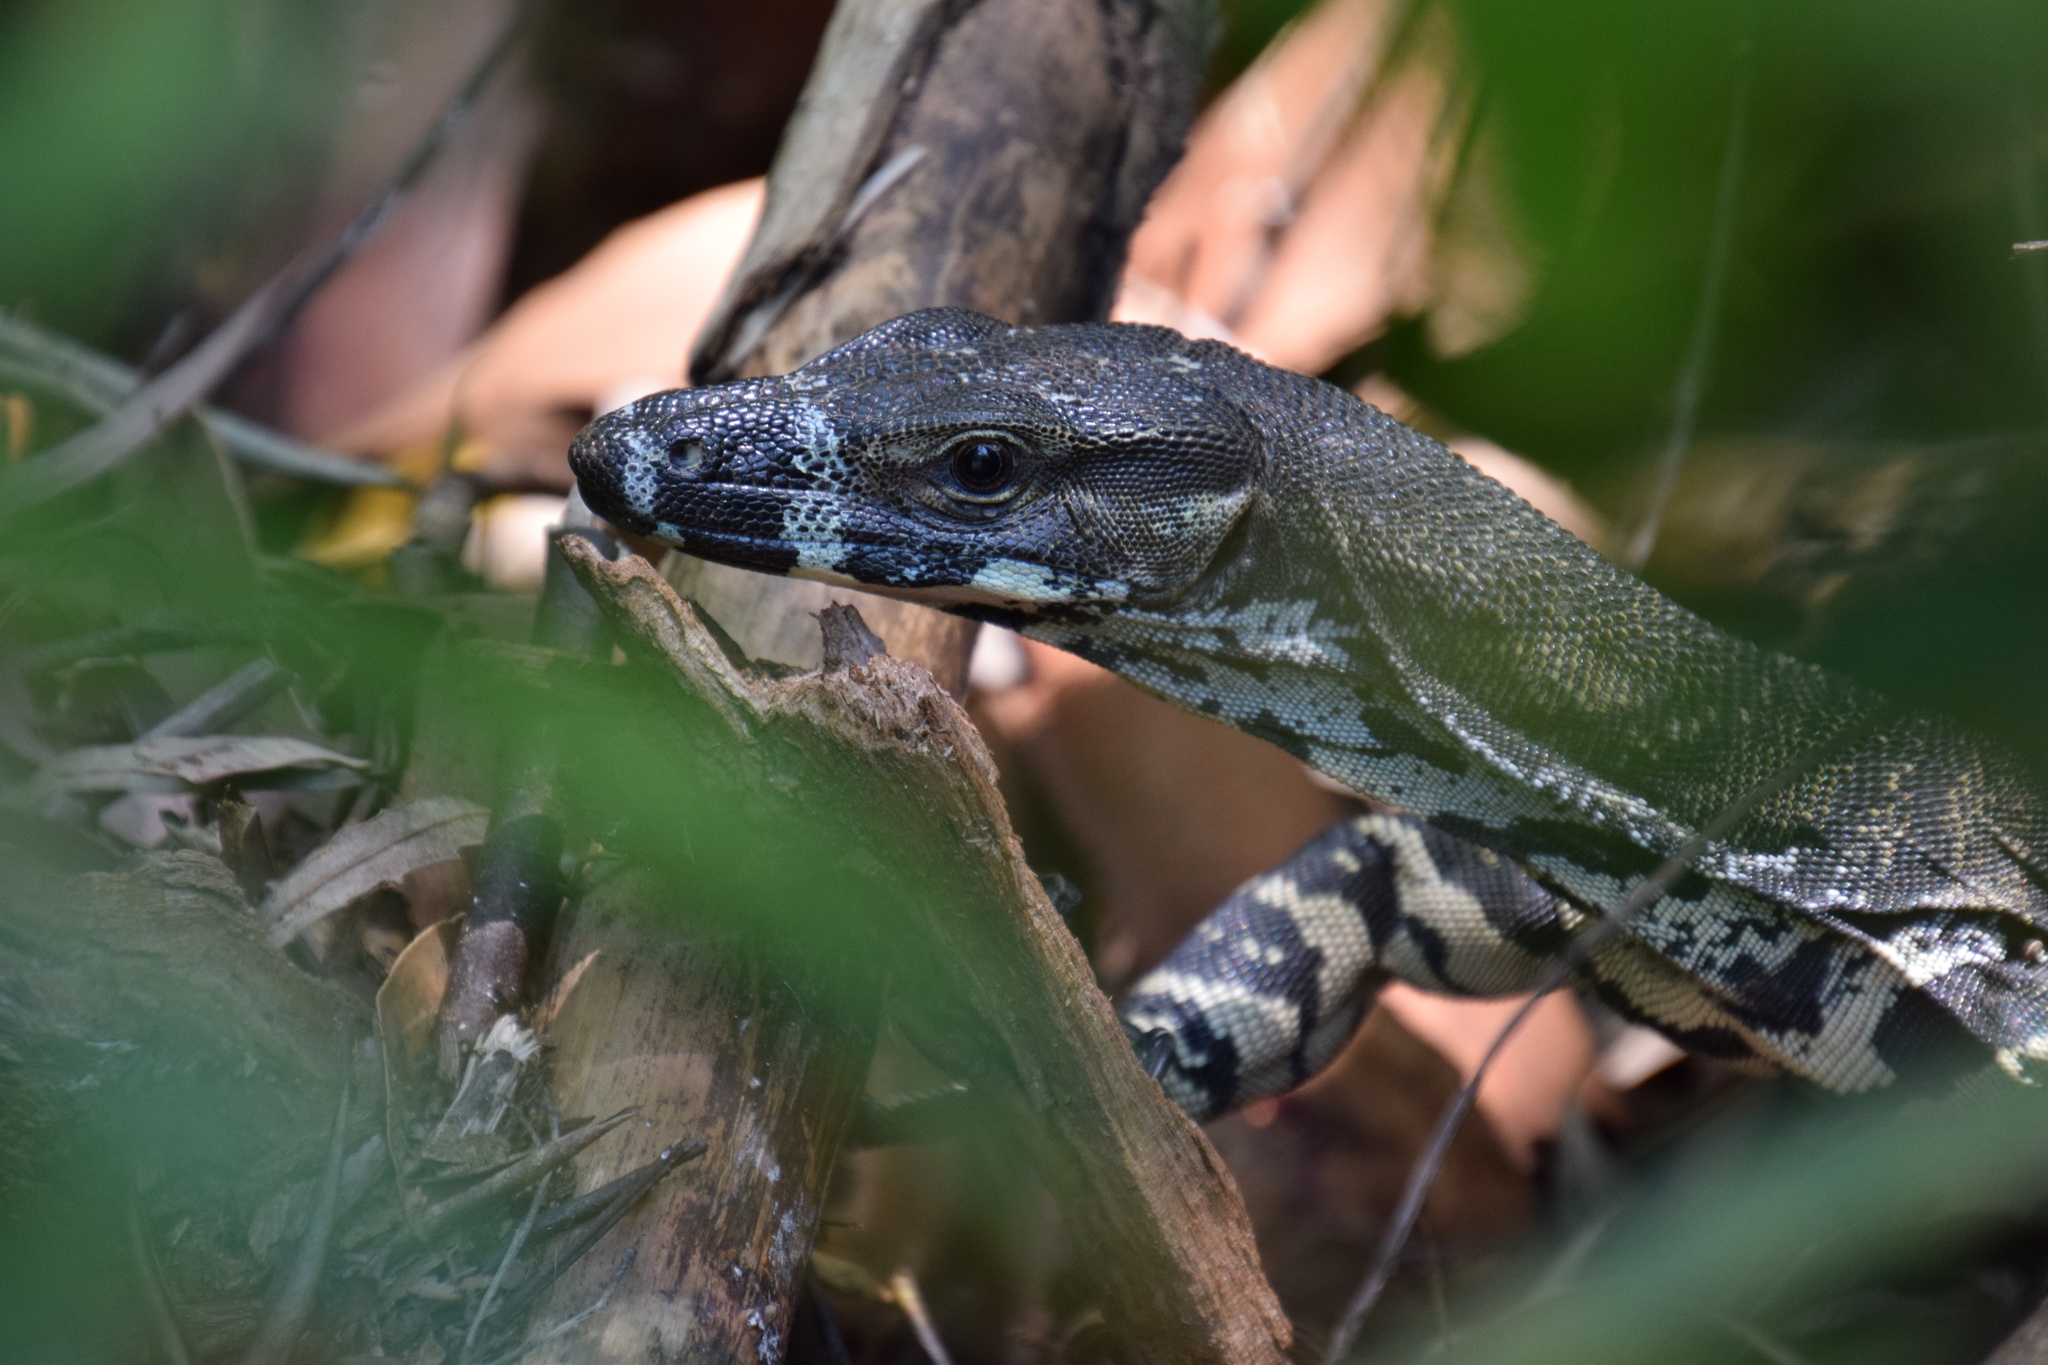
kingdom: Animalia
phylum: Chordata
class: Squamata
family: Varanidae
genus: Varanus
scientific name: Varanus varius
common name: Lace monitor
